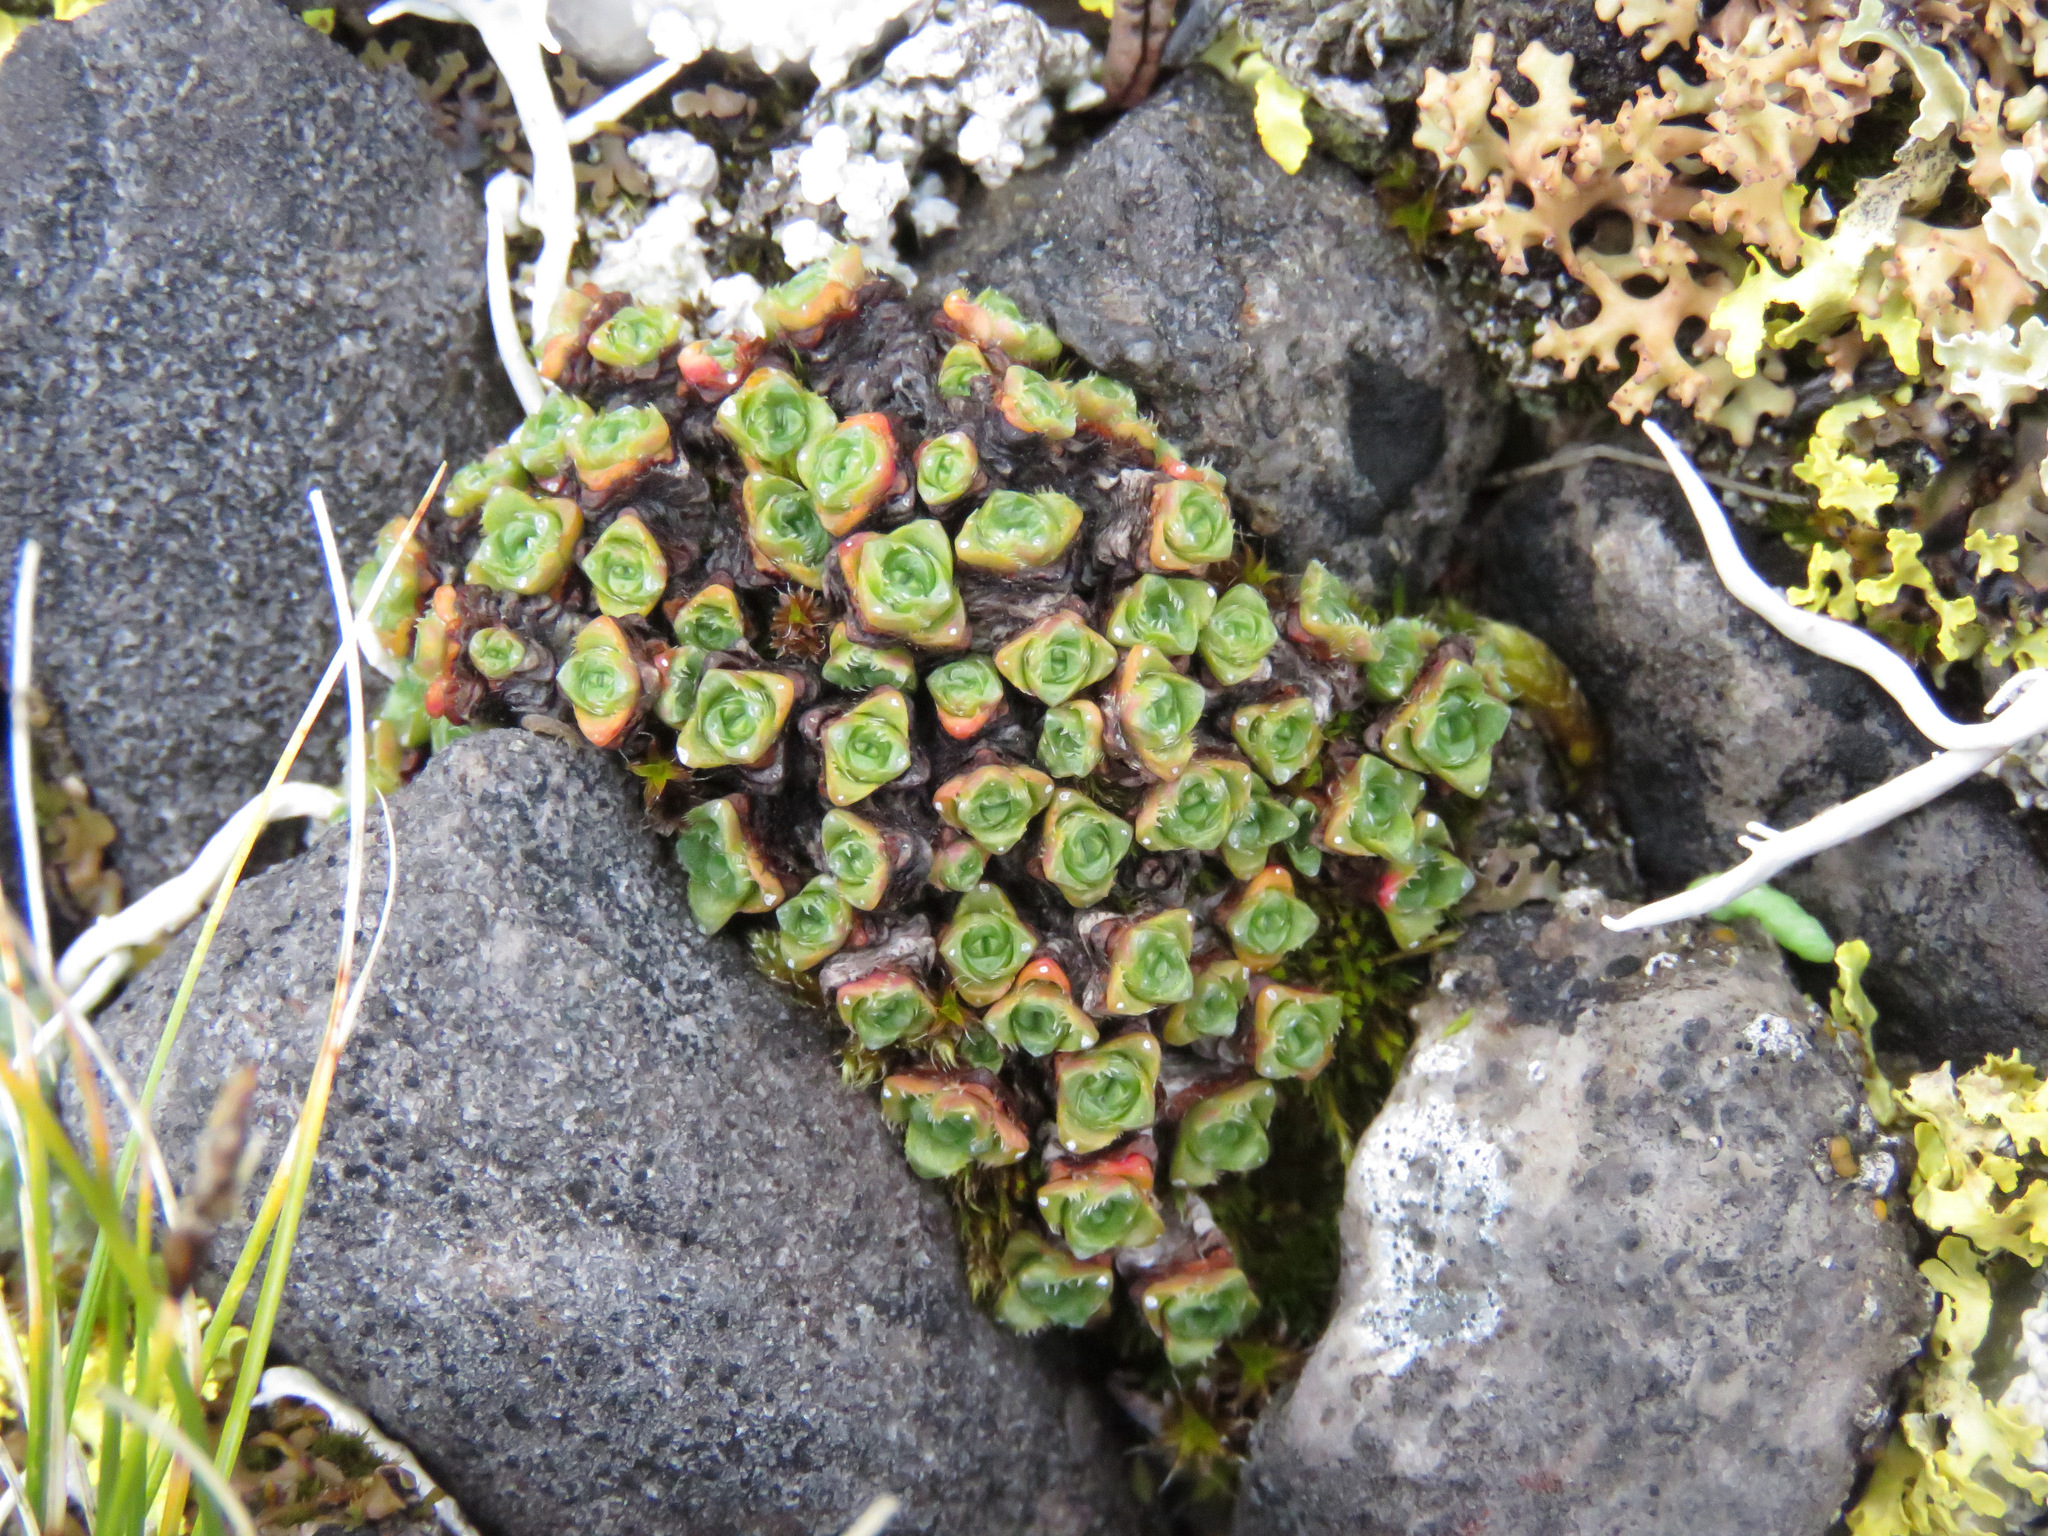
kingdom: Plantae
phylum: Tracheophyta
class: Magnoliopsida
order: Saxifragales
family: Saxifragaceae
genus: Saxifraga
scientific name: Saxifraga oppositifolia
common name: Purple saxifrage
